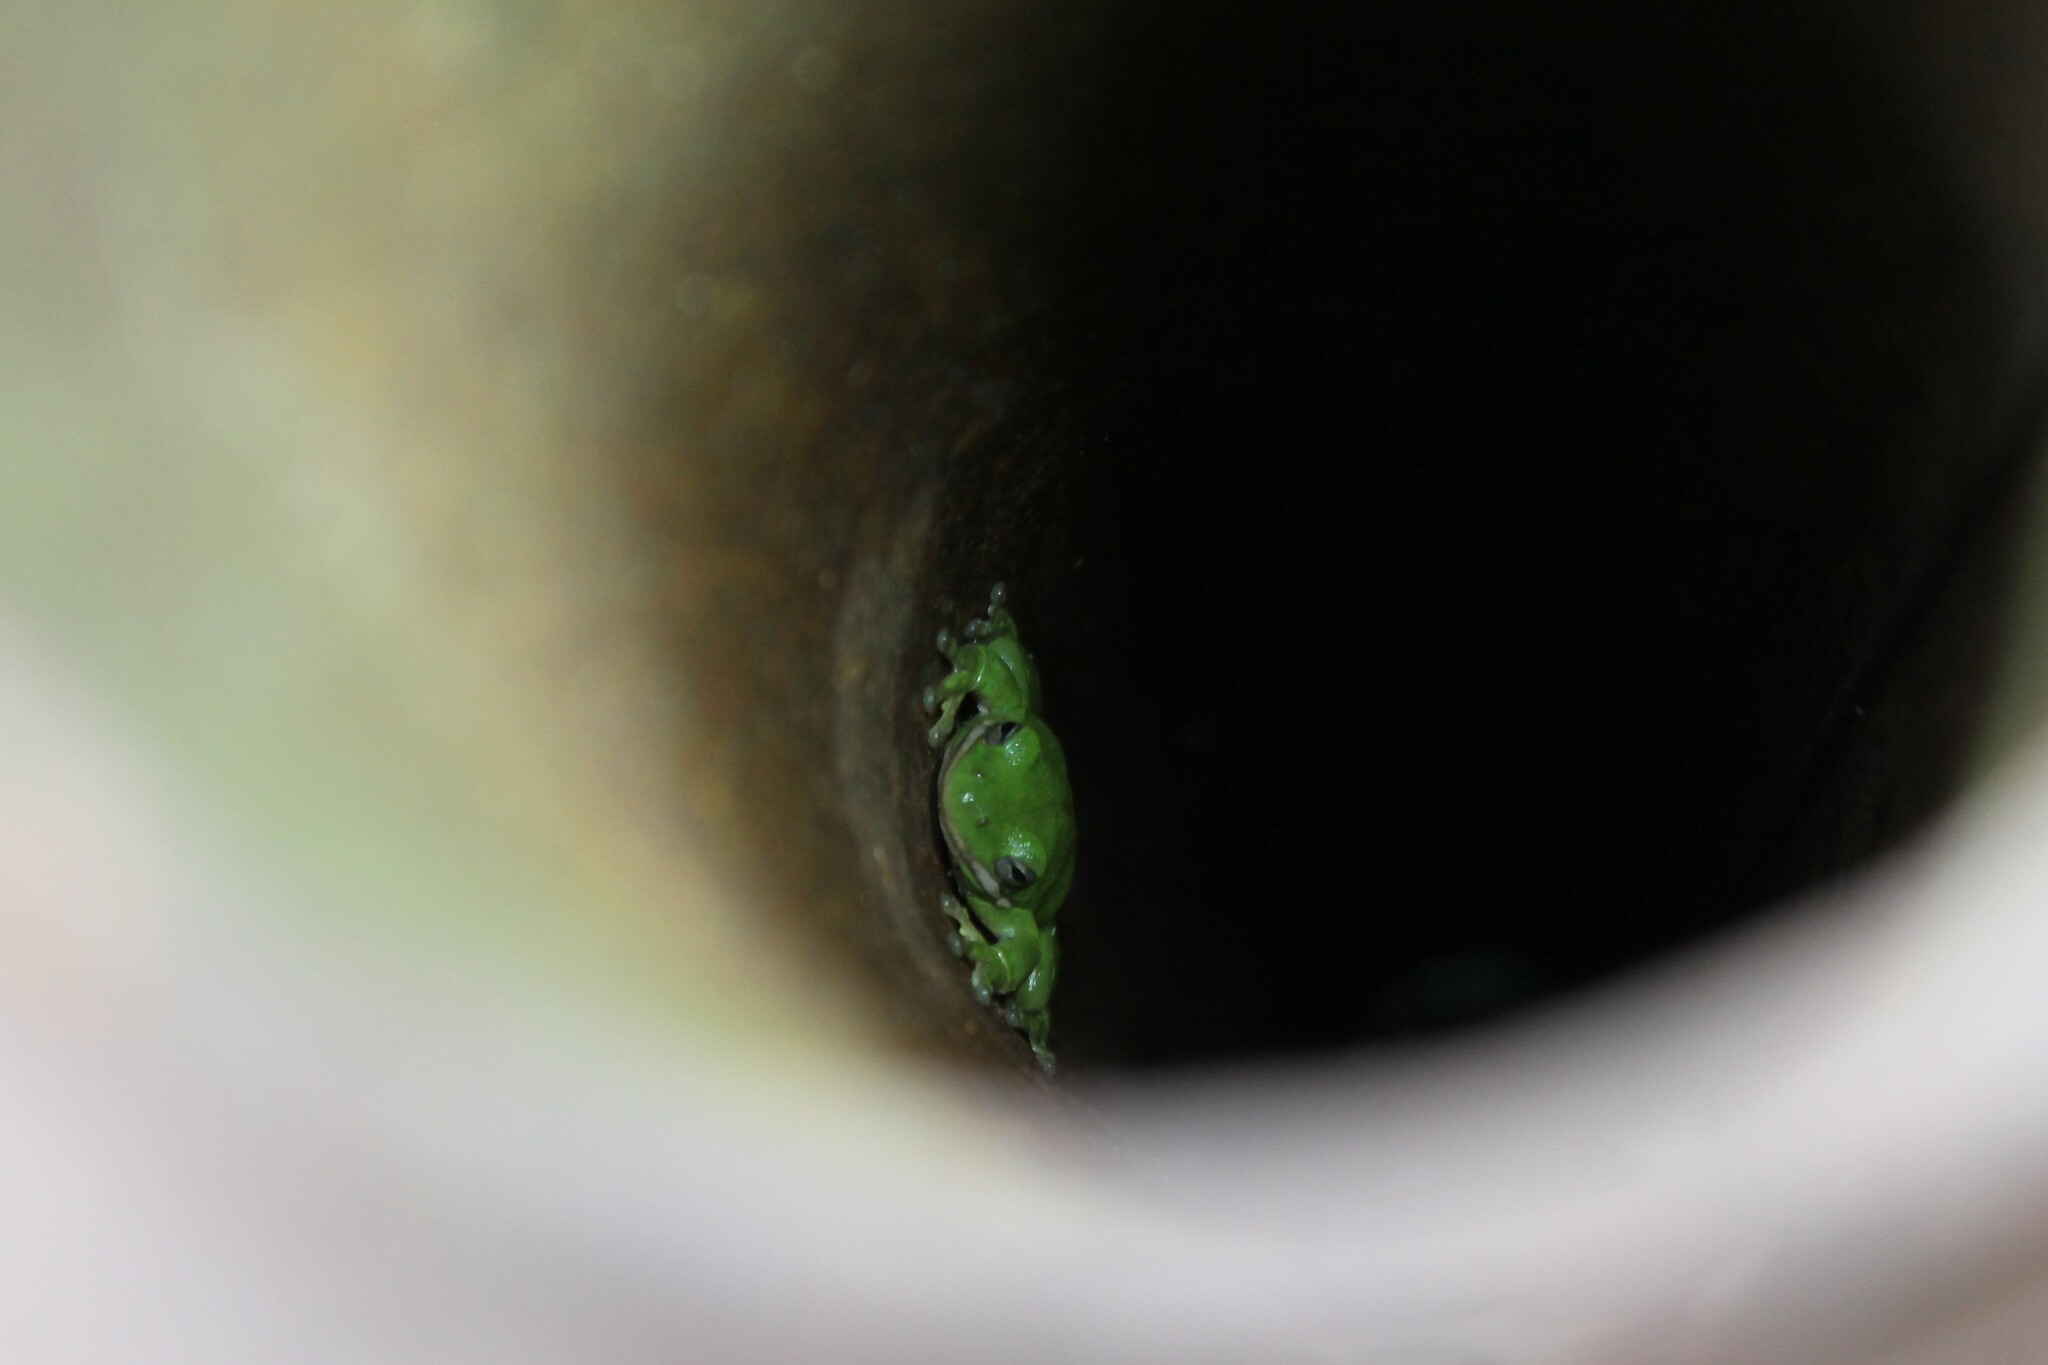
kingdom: Animalia
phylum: Chordata
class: Amphibia
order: Anura
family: Hylidae
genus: Dryophytes
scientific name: Dryophytes cinereus
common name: Green treefrog
